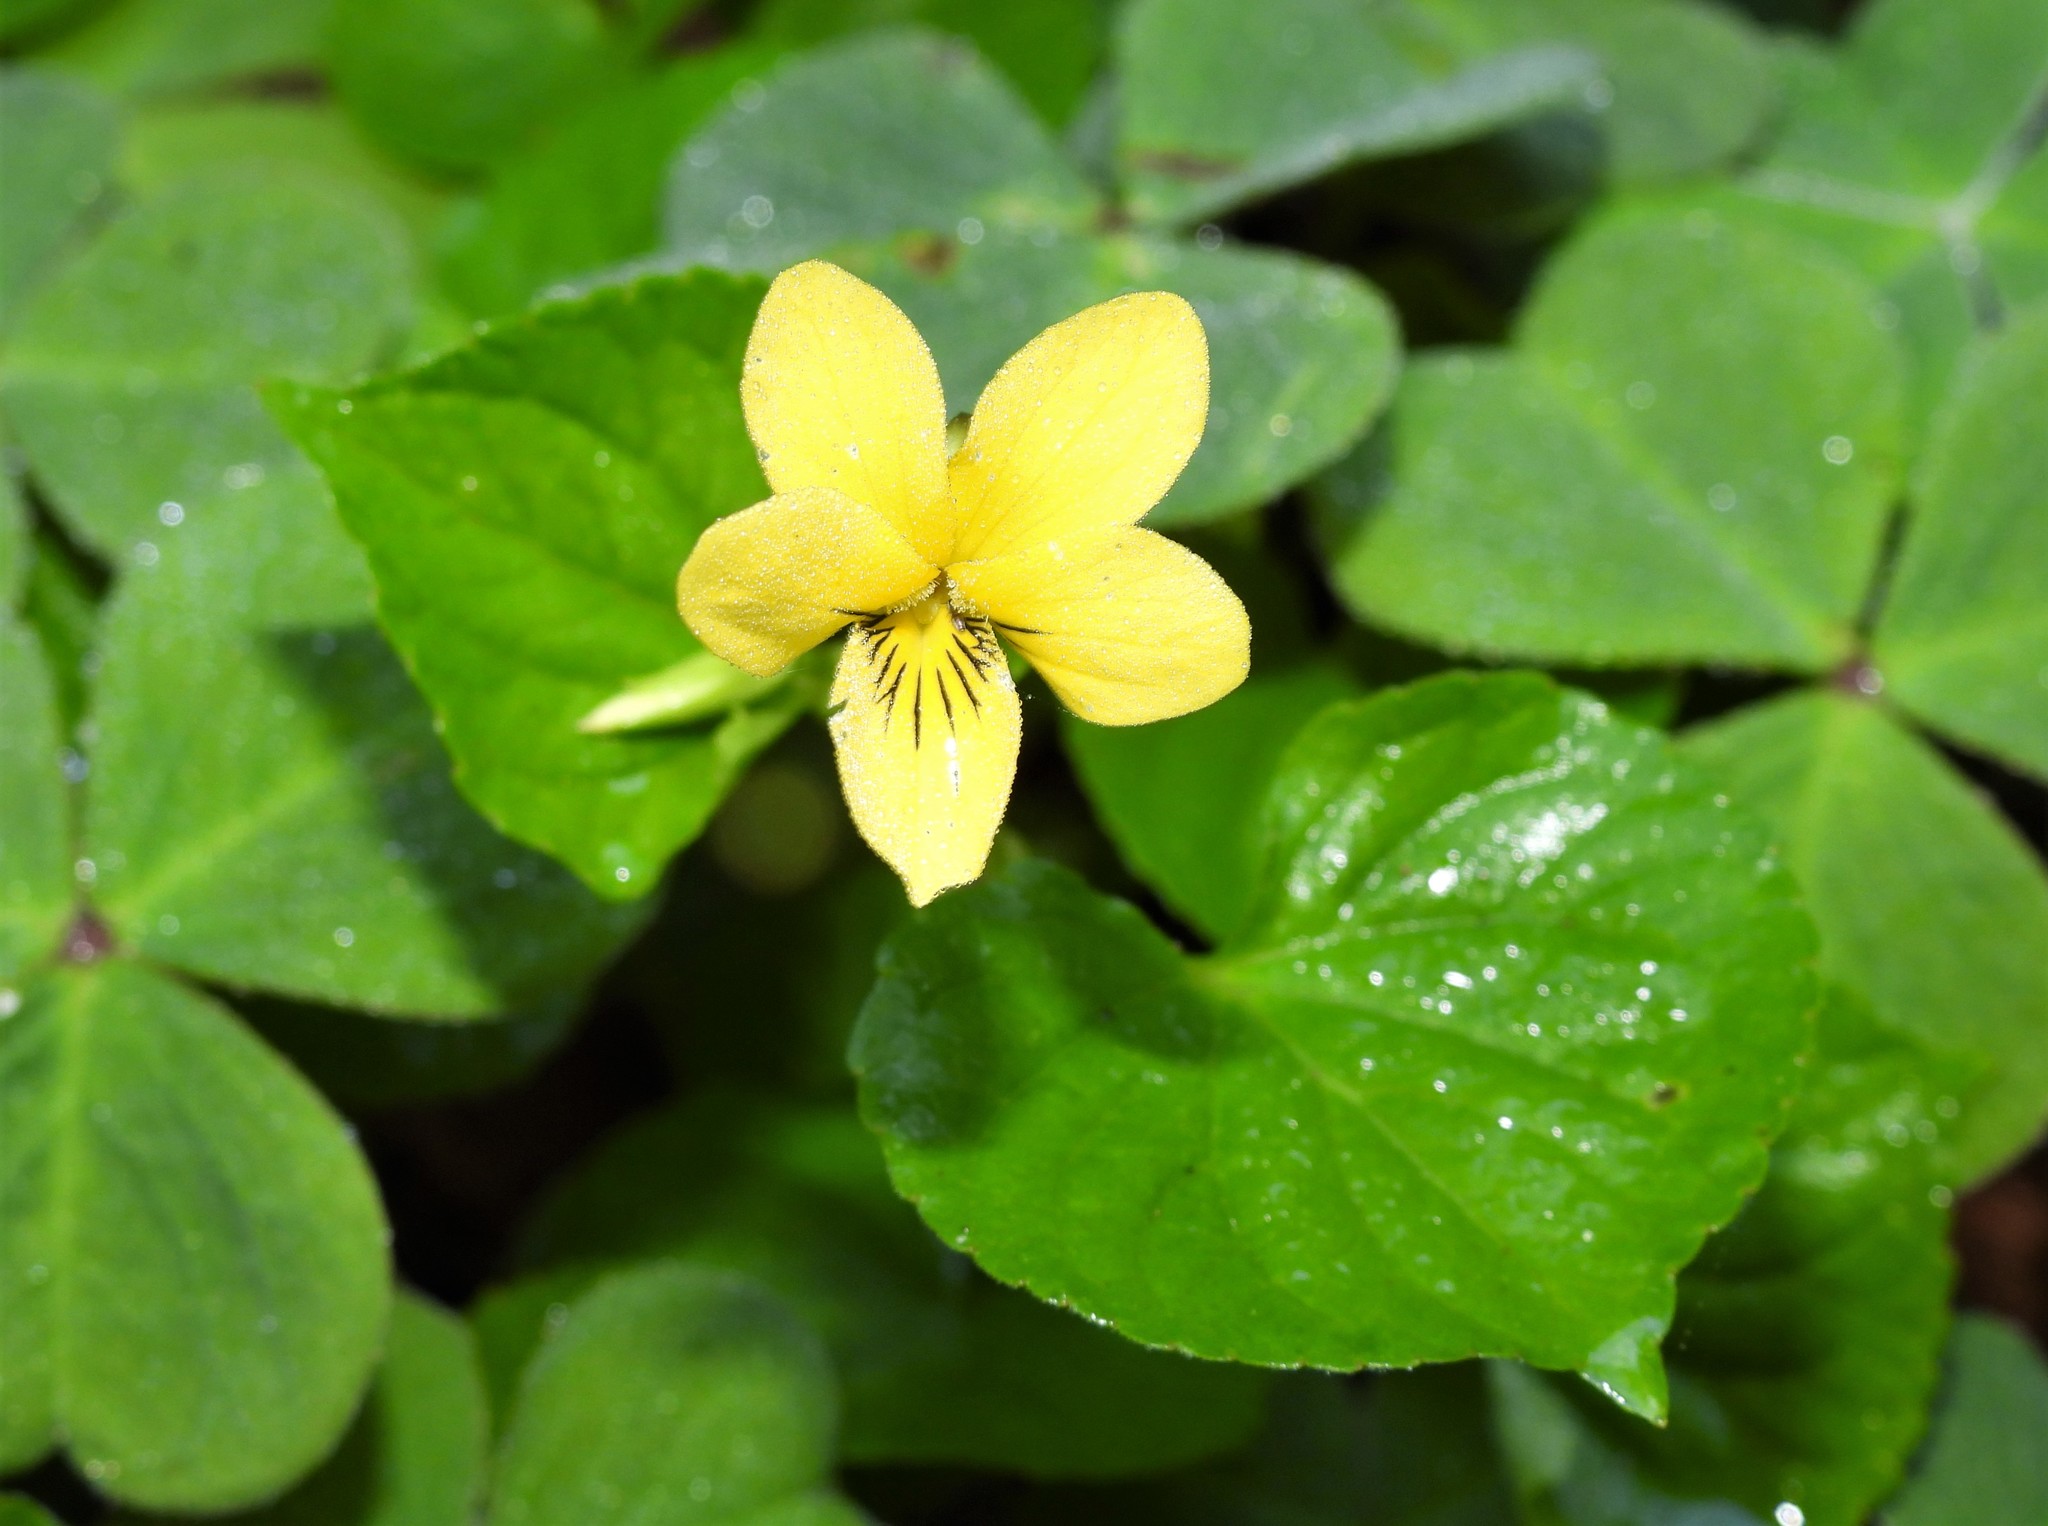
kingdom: Plantae
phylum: Tracheophyta
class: Magnoliopsida
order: Malpighiales
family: Violaceae
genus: Viola
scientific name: Viola glabella
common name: Stream violet
